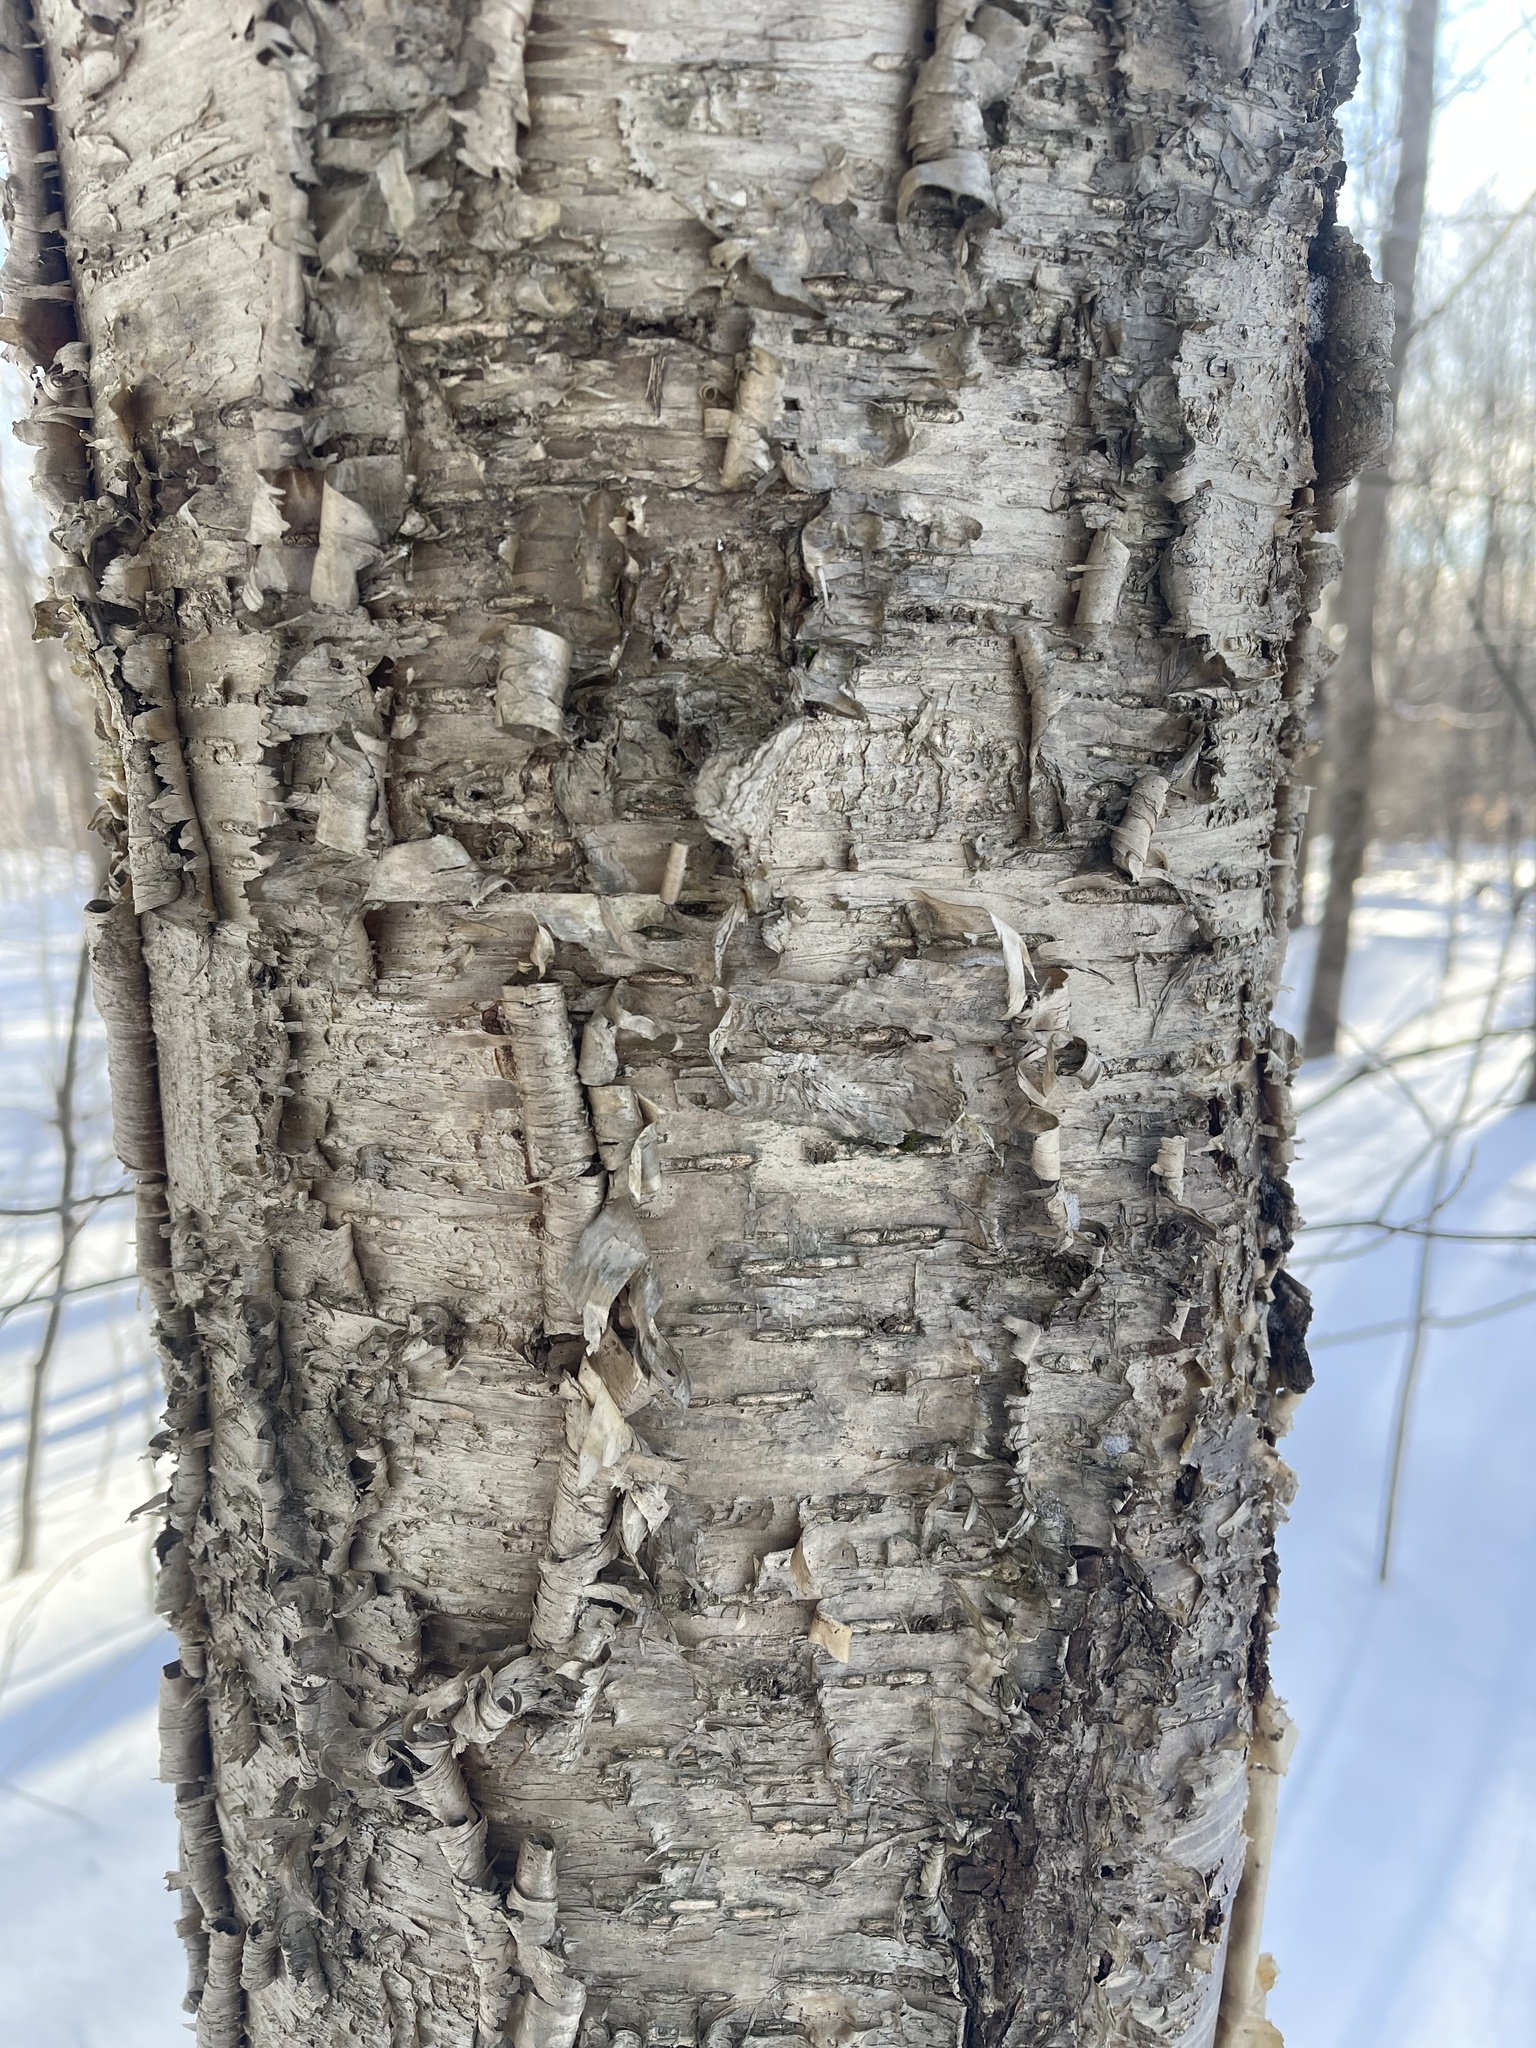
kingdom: Plantae
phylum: Tracheophyta
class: Magnoliopsida
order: Fagales
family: Betulaceae
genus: Betula
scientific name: Betula alleghaniensis
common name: Yellow birch
